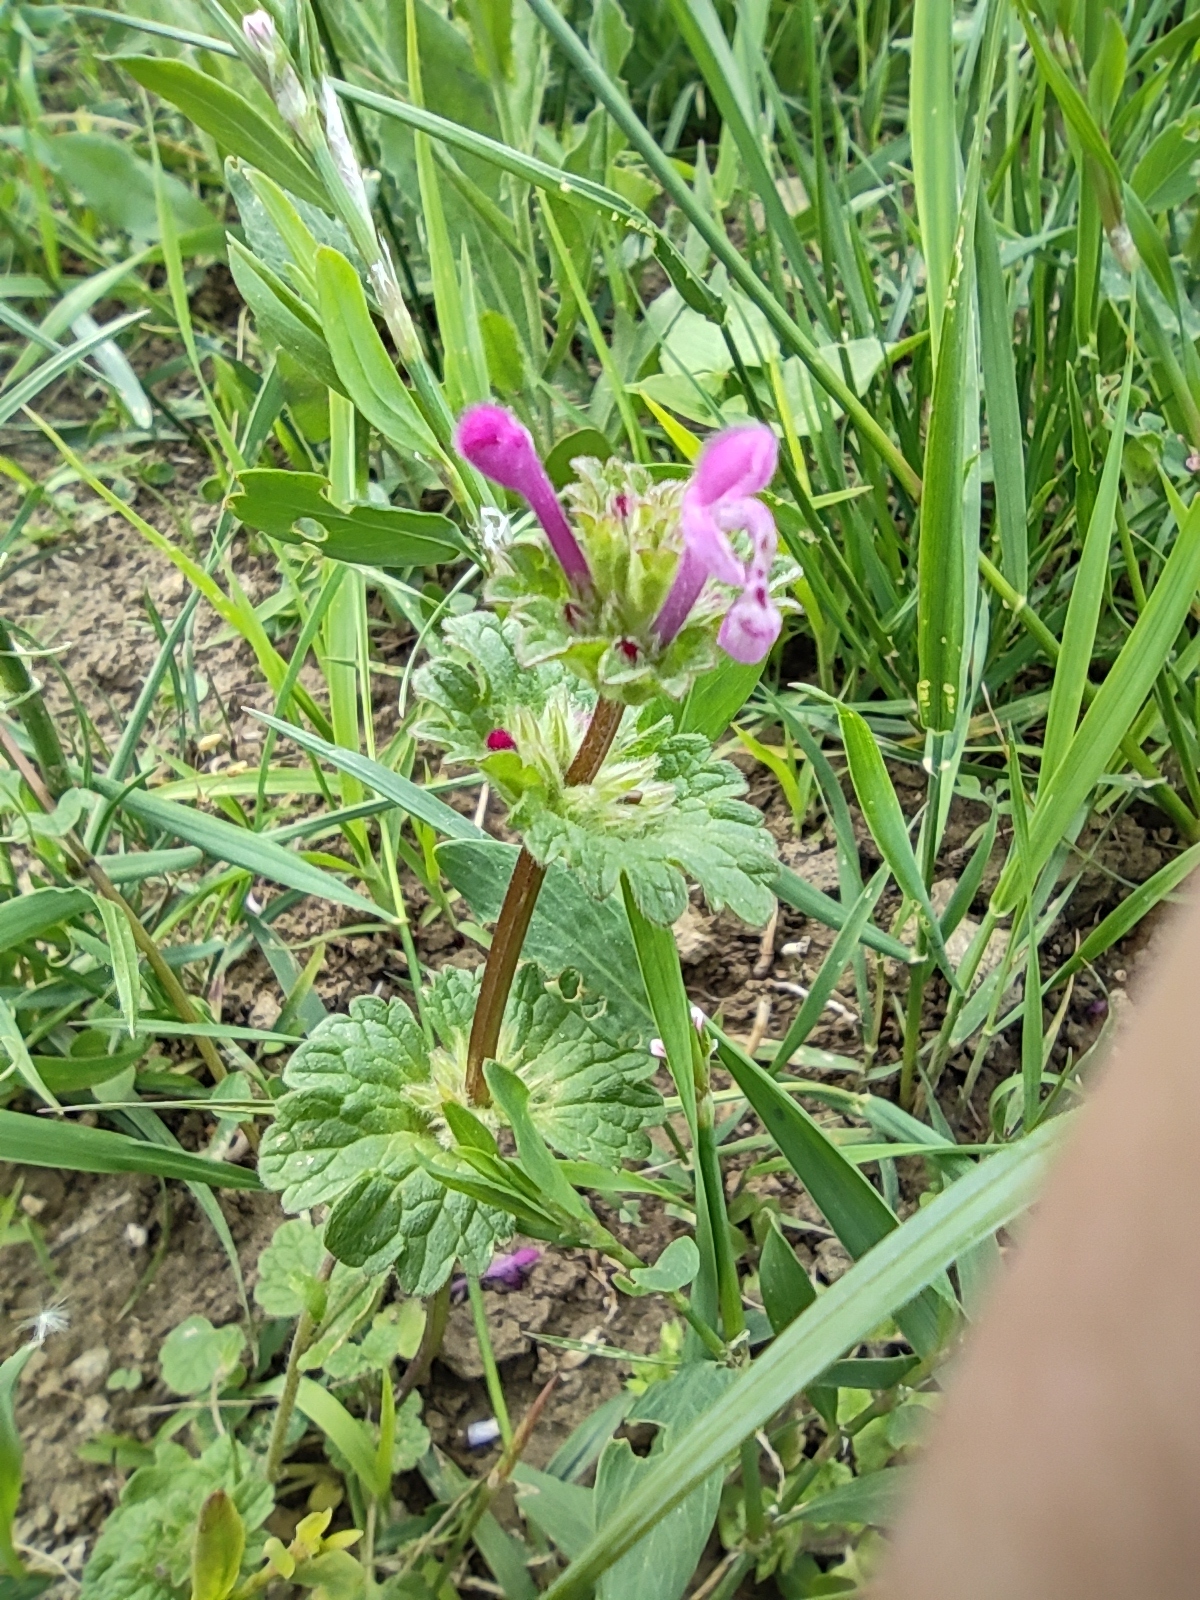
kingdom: Plantae
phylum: Tracheophyta
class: Magnoliopsida
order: Lamiales
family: Lamiaceae
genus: Lamium
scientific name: Lamium amplexicaule
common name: Henbit dead-nettle
